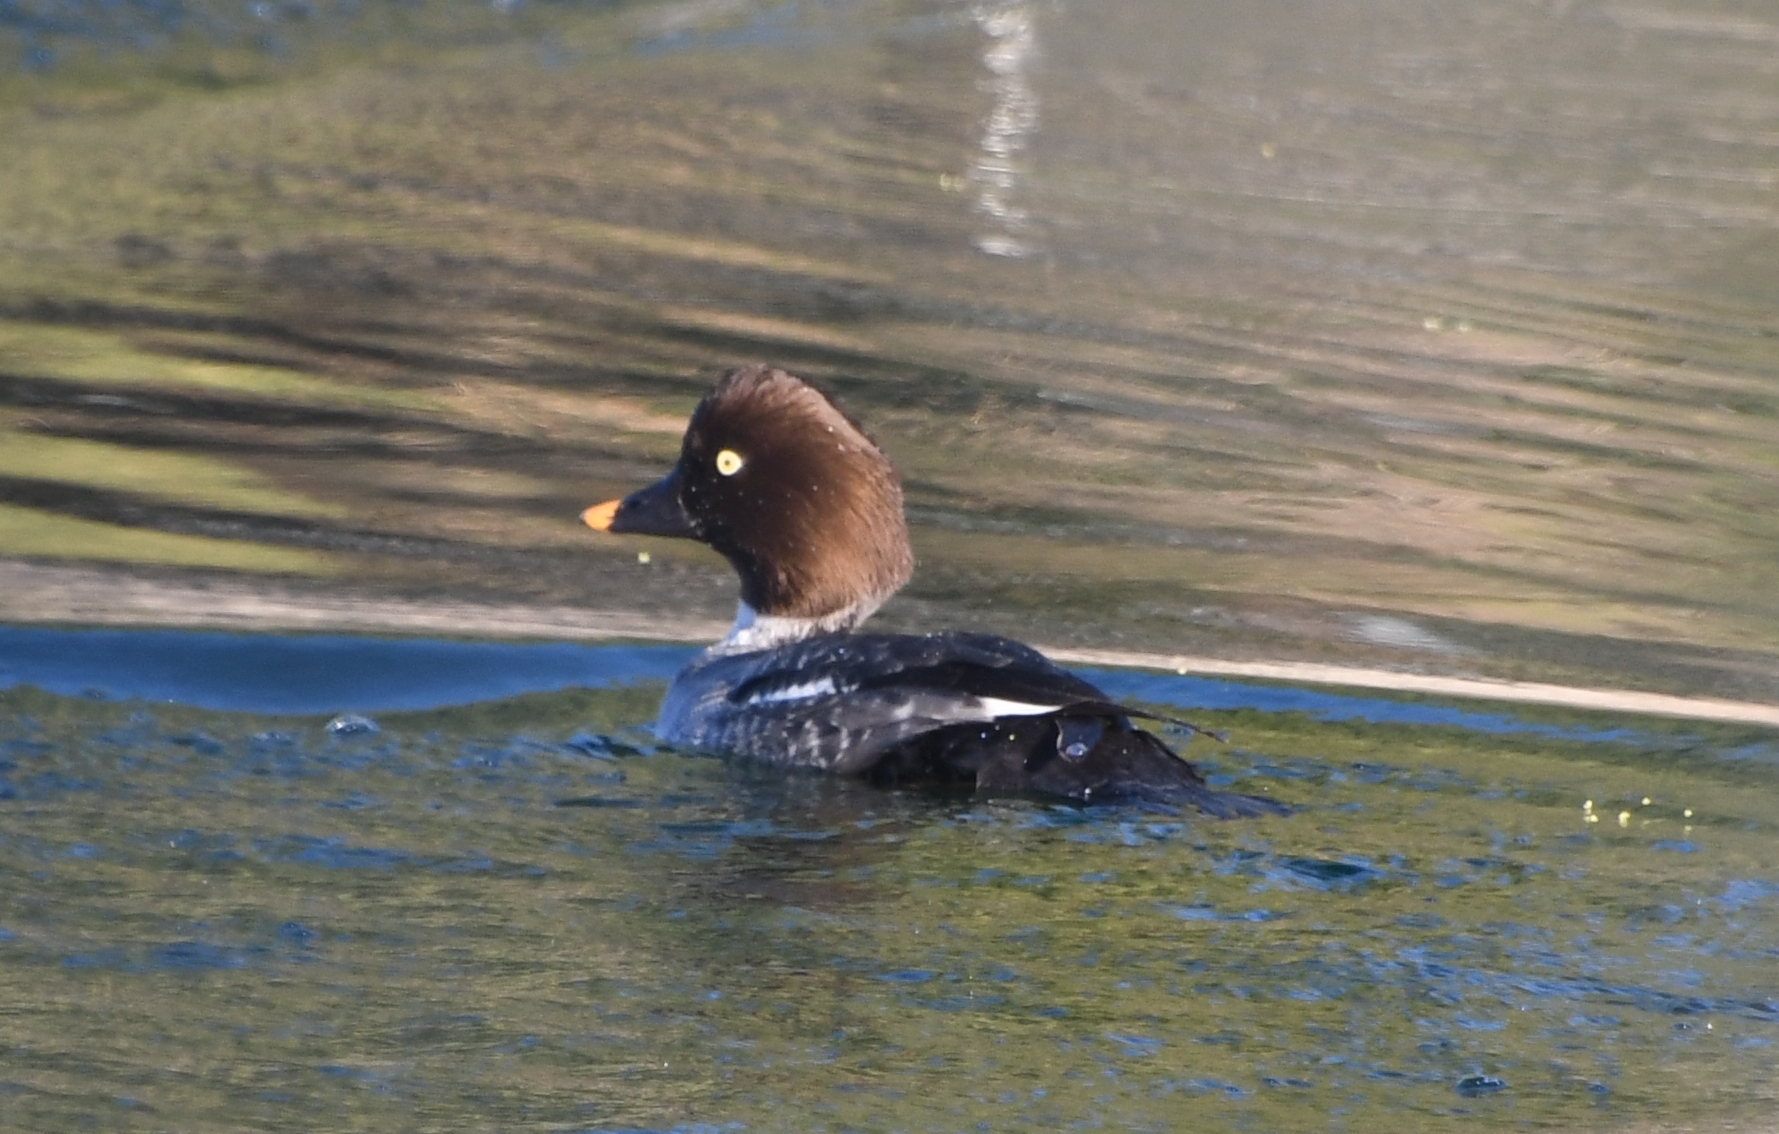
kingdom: Animalia
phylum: Chordata
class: Aves
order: Anseriformes
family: Anatidae
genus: Bucephala
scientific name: Bucephala clangula
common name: Common goldeneye
